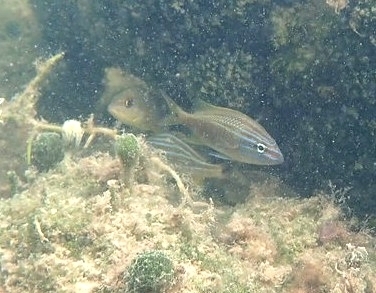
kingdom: Animalia
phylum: Chordata
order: Perciformes
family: Haemulidae
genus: Haemulon
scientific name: Haemulon plumierii
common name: White grunt
